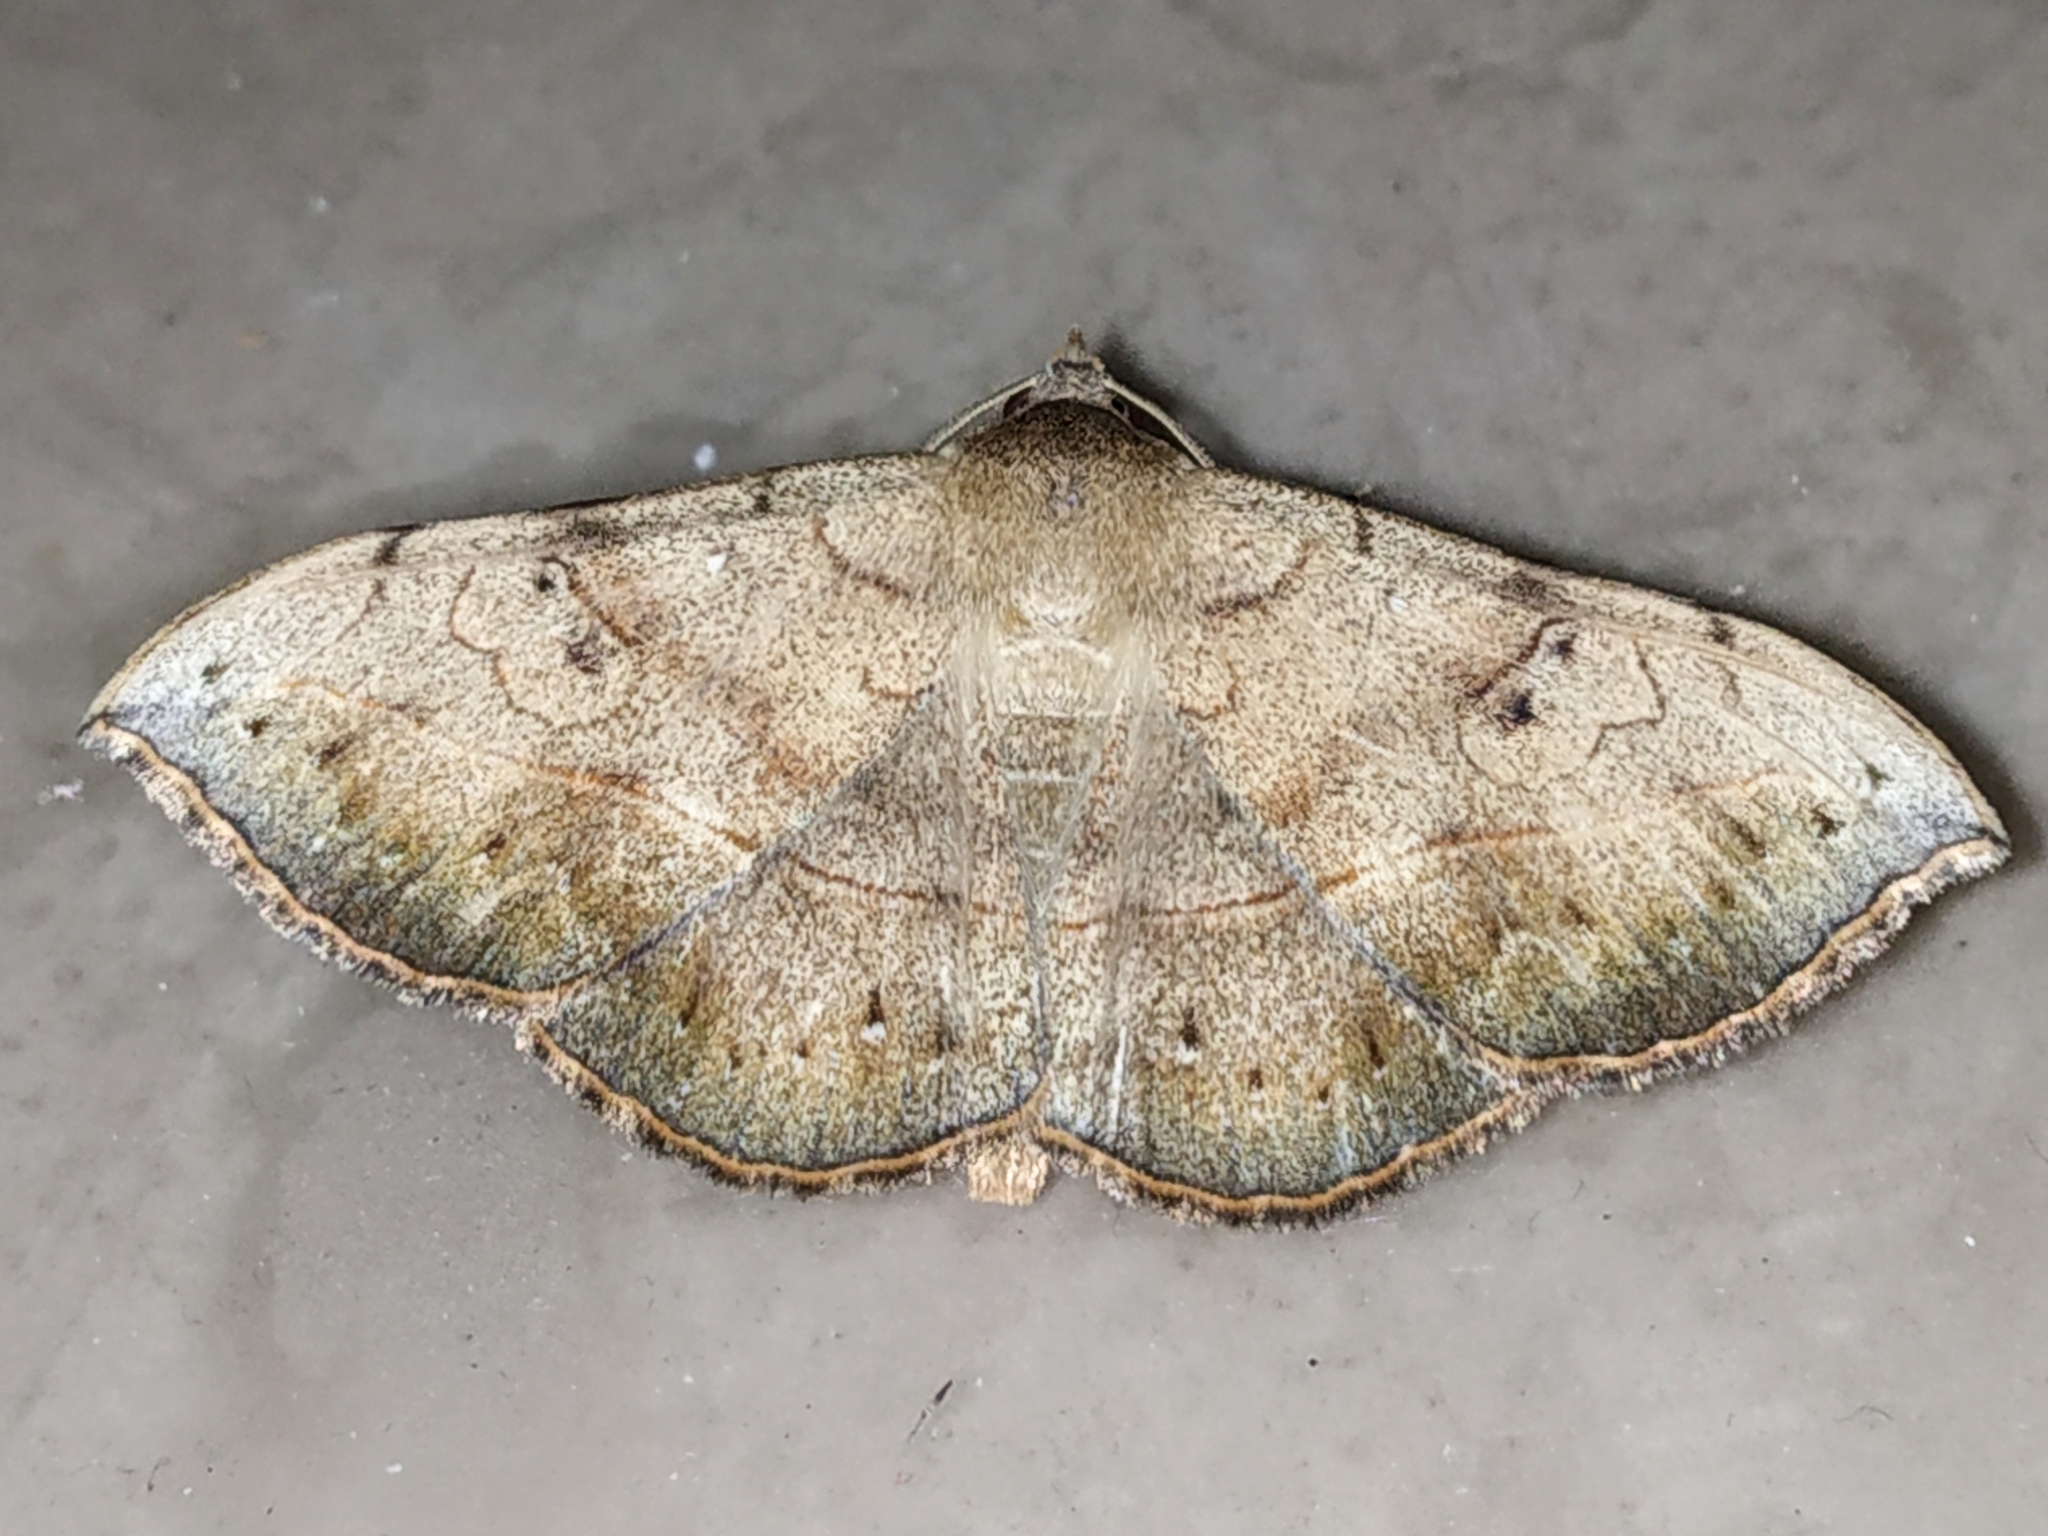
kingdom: Animalia
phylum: Arthropoda
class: Insecta
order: Lepidoptera
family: Erebidae
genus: Anticarsia
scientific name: Anticarsia irrorata
